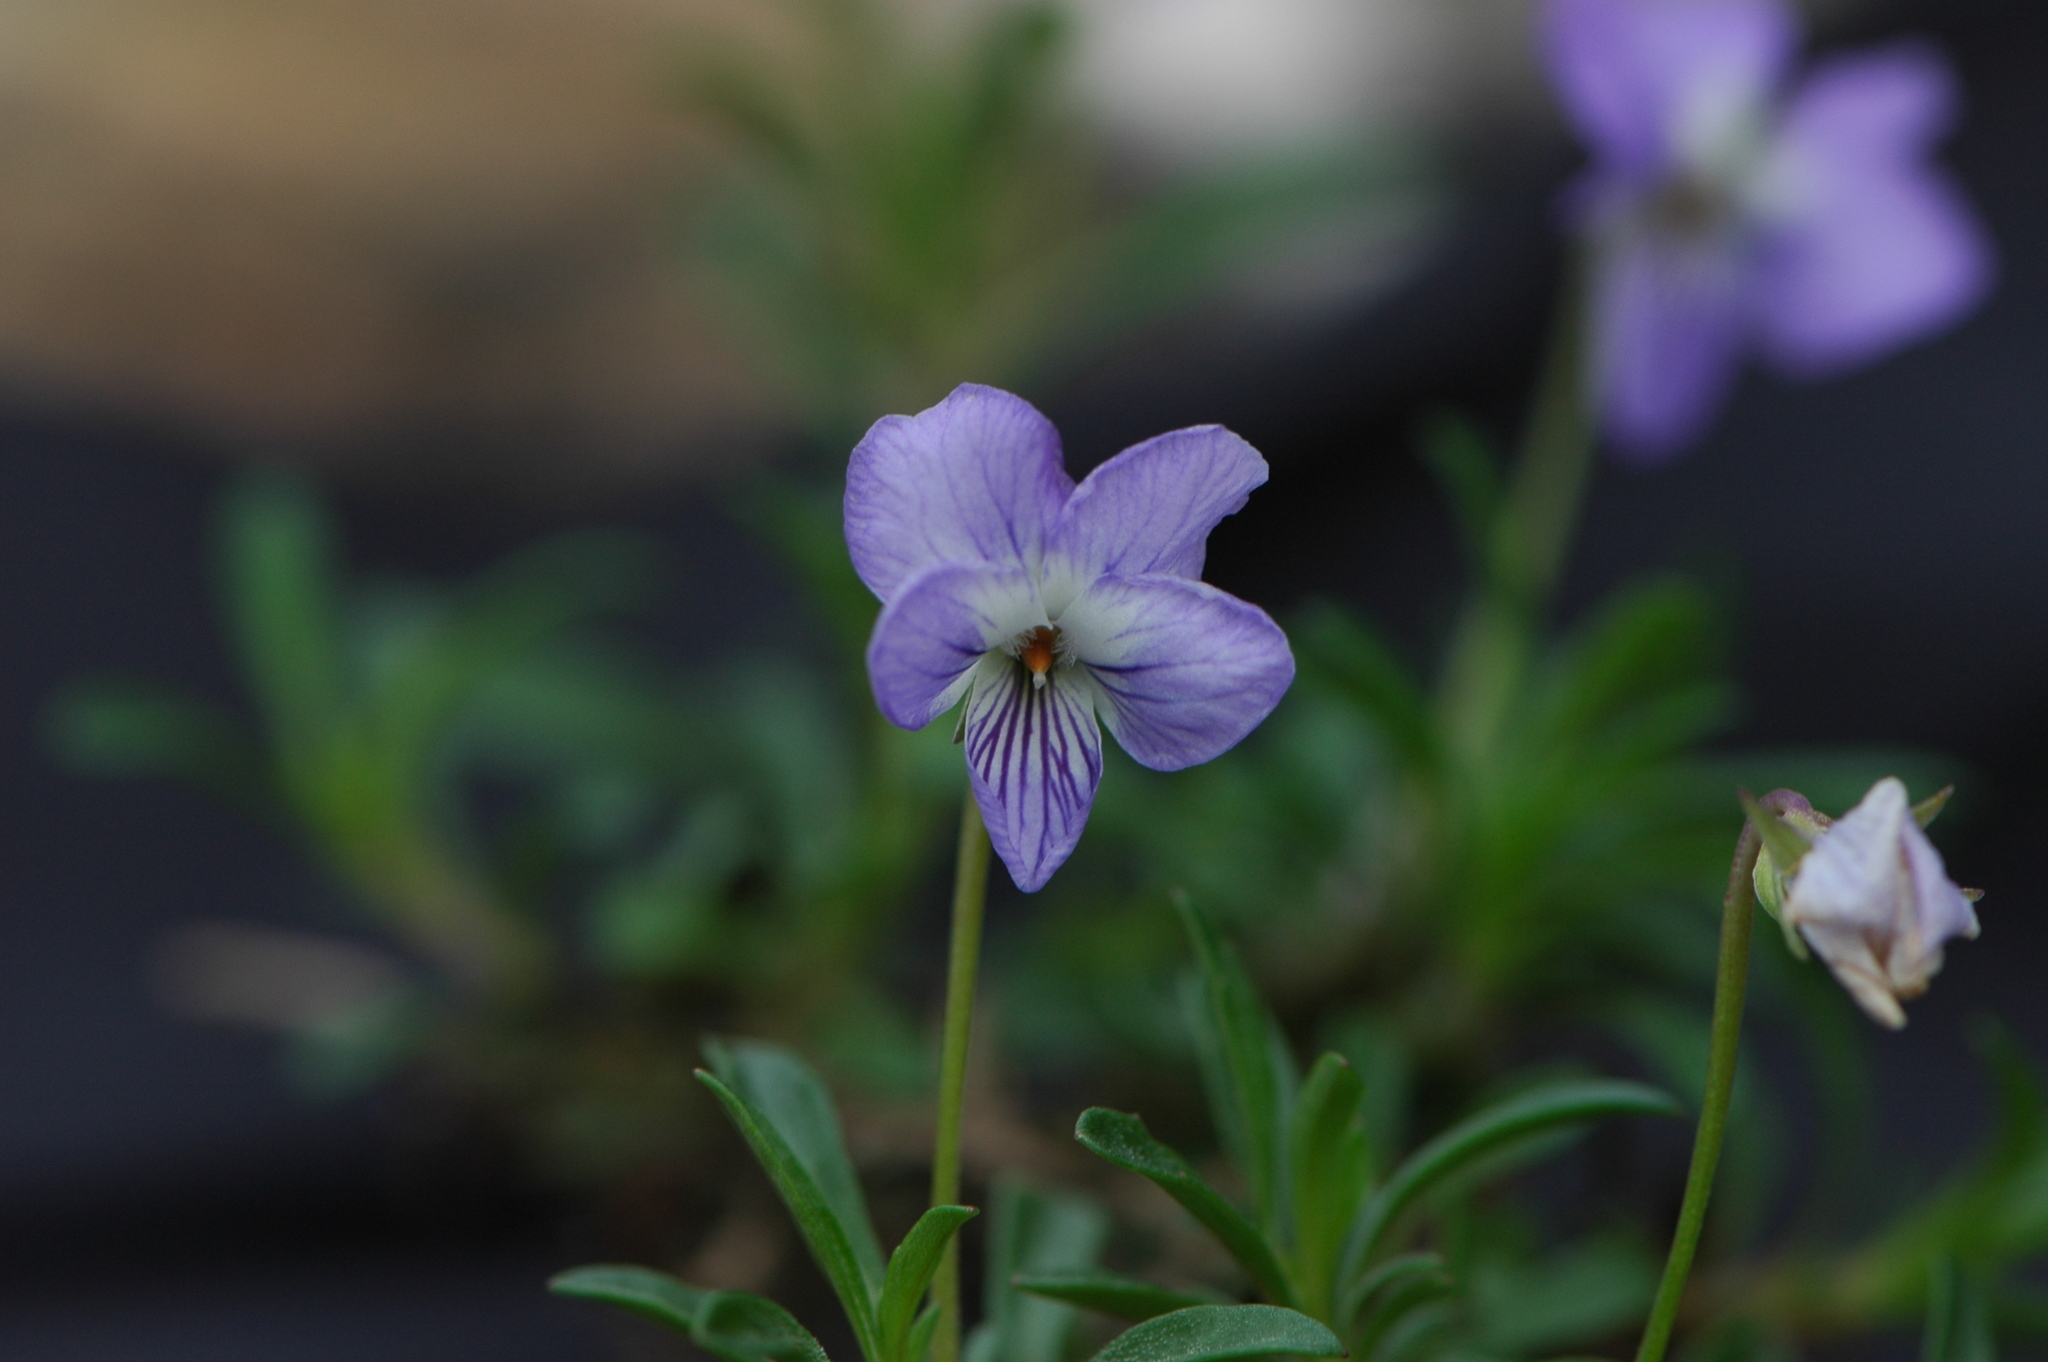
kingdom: Plantae
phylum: Tracheophyta
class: Magnoliopsida
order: Malpighiales
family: Violaceae
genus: Viola
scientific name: Viola arborescens
